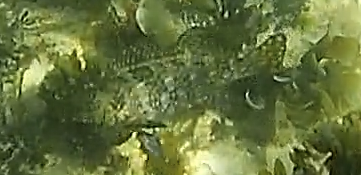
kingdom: Animalia
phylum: Chordata
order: Perciformes
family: Aplodactylidae
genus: Aplodactylus
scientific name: Aplodactylus lophodon
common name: Cockatoo fish
